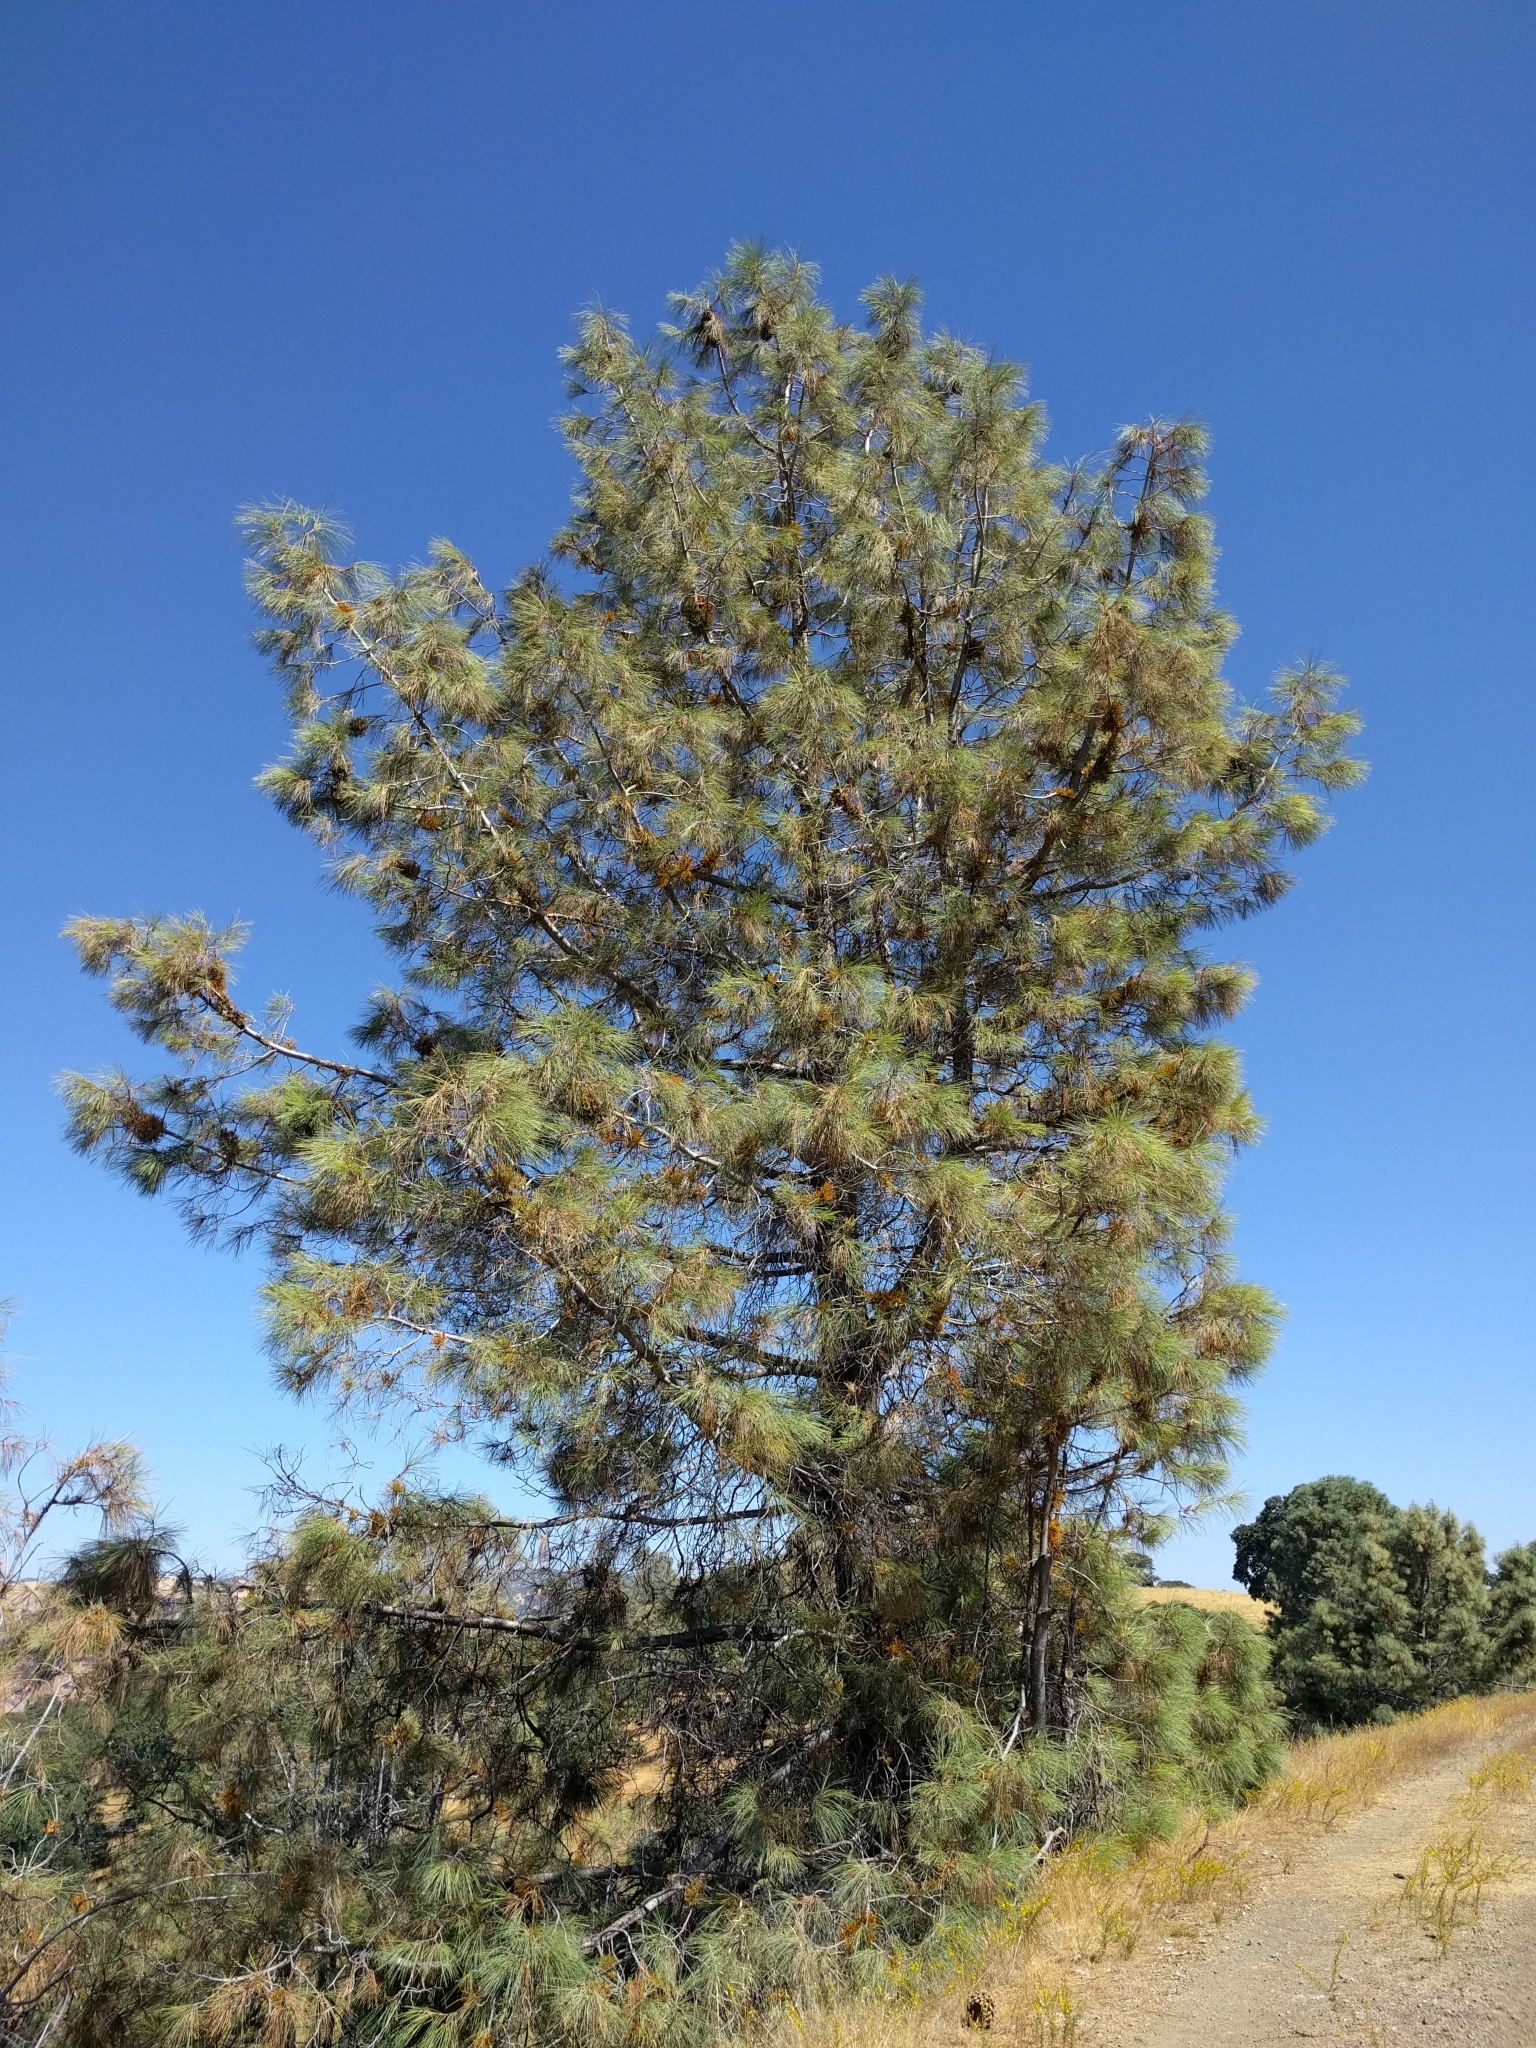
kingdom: Plantae
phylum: Tracheophyta
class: Pinopsida
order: Pinales
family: Pinaceae
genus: Pinus
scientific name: Pinus sabiniana
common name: Bull pine
